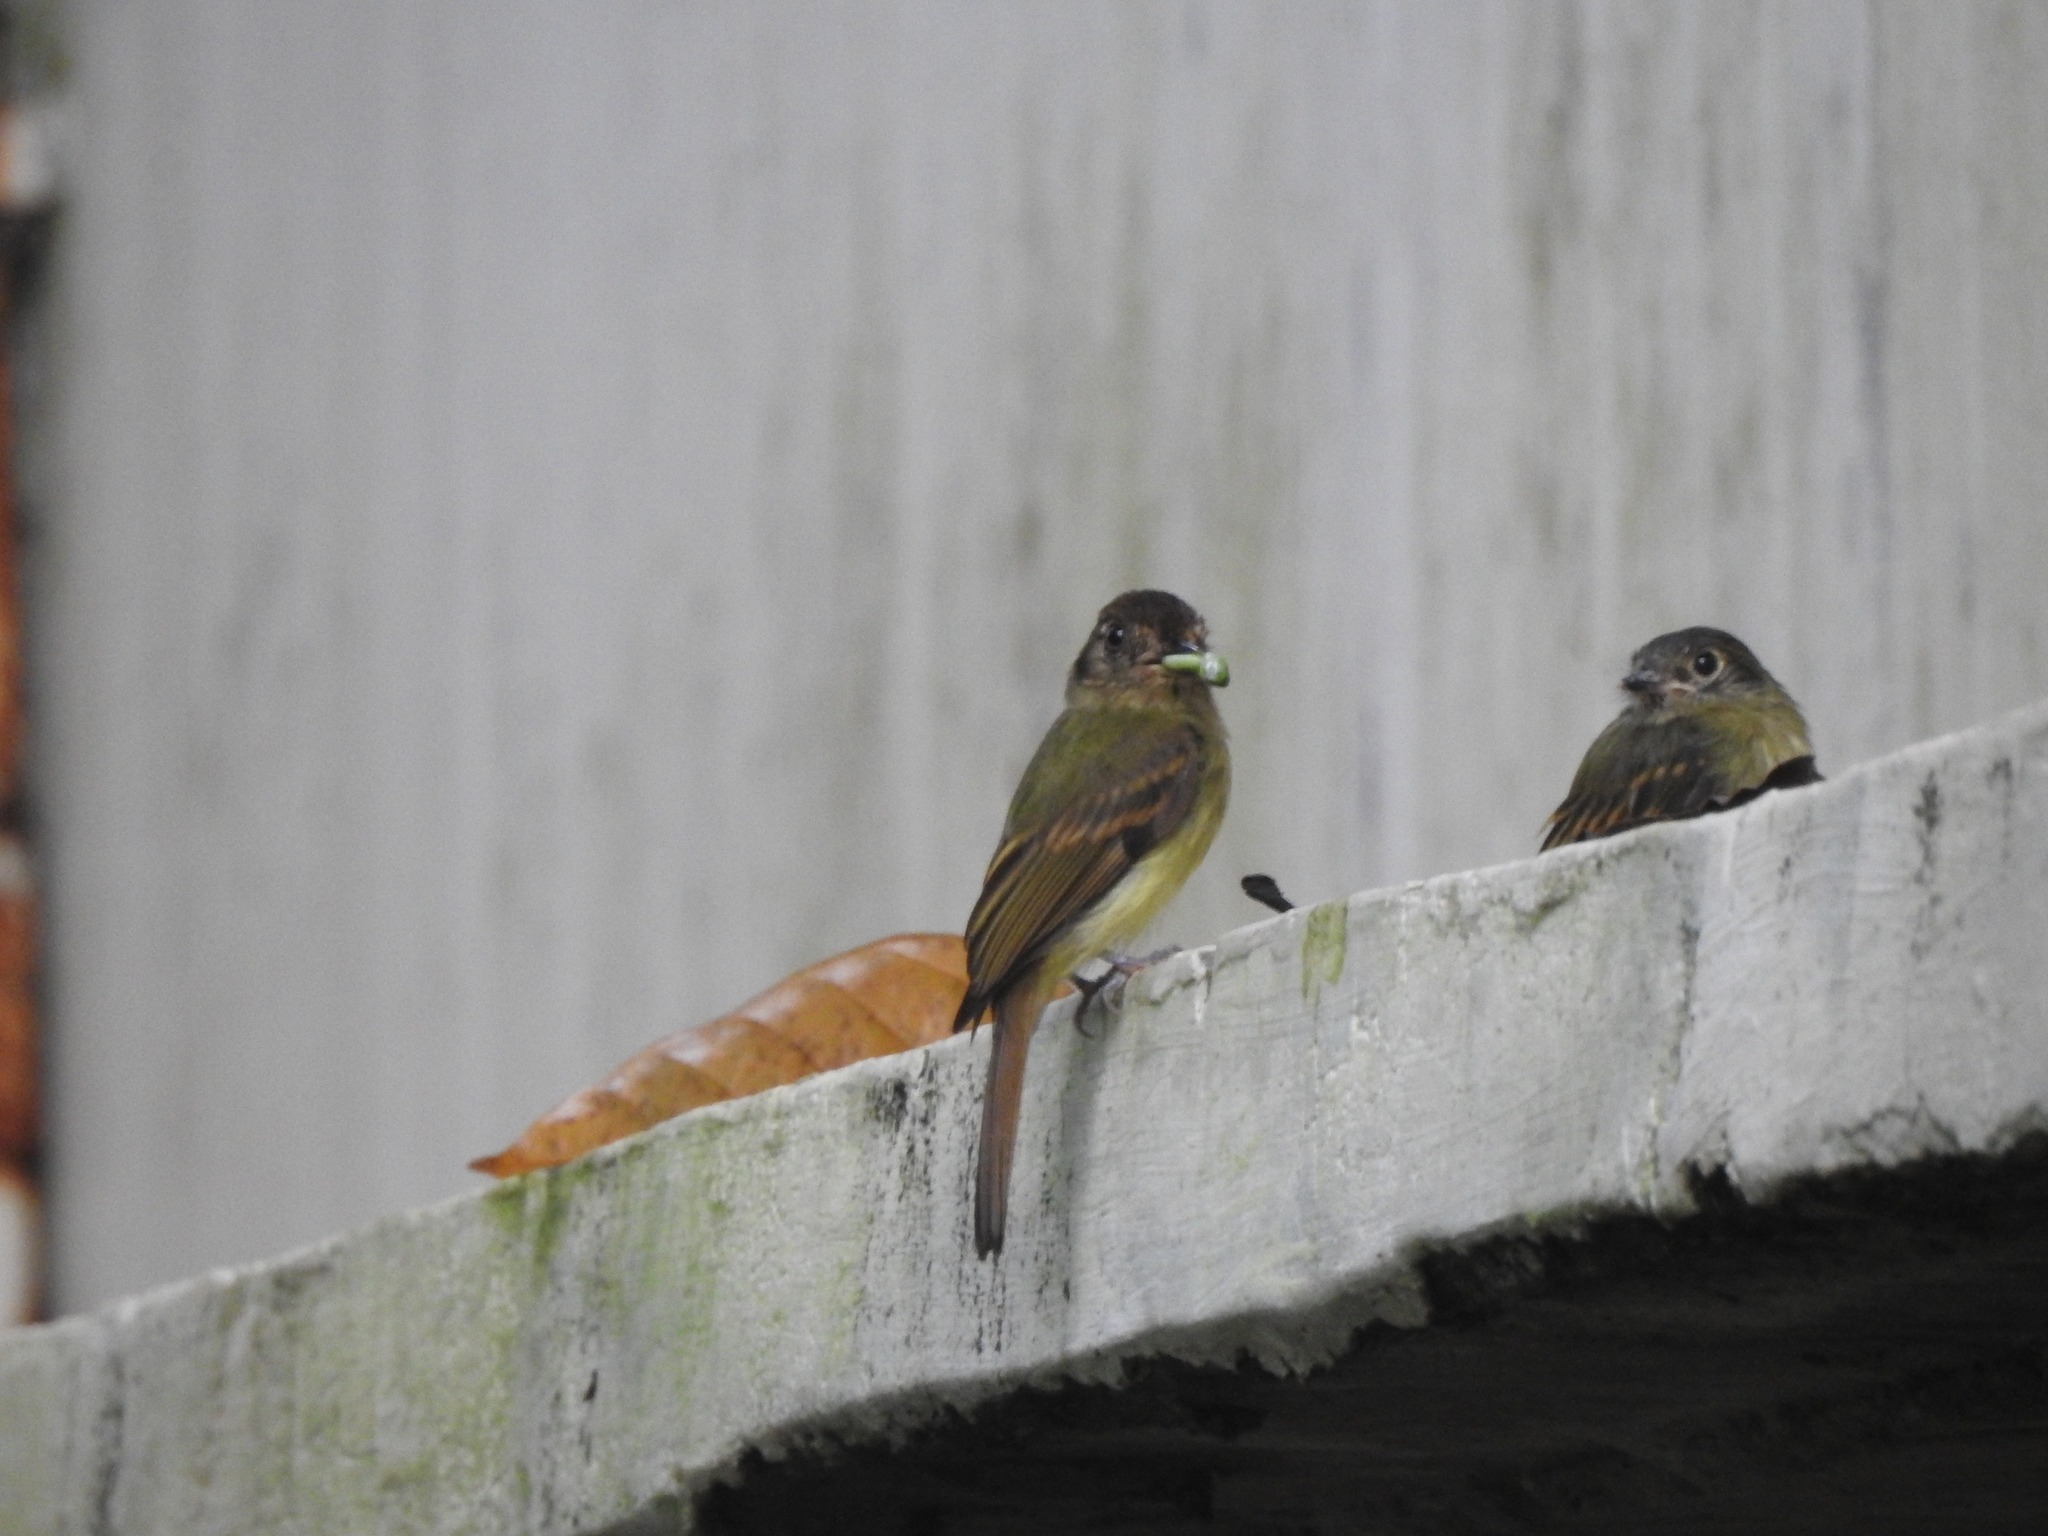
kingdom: Animalia
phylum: Chordata
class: Aves
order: Passeriformes
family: Tyrannidae
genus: Leptopogon
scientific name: Leptopogon amaurocephalus
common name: Sepia-capped flycatcher
